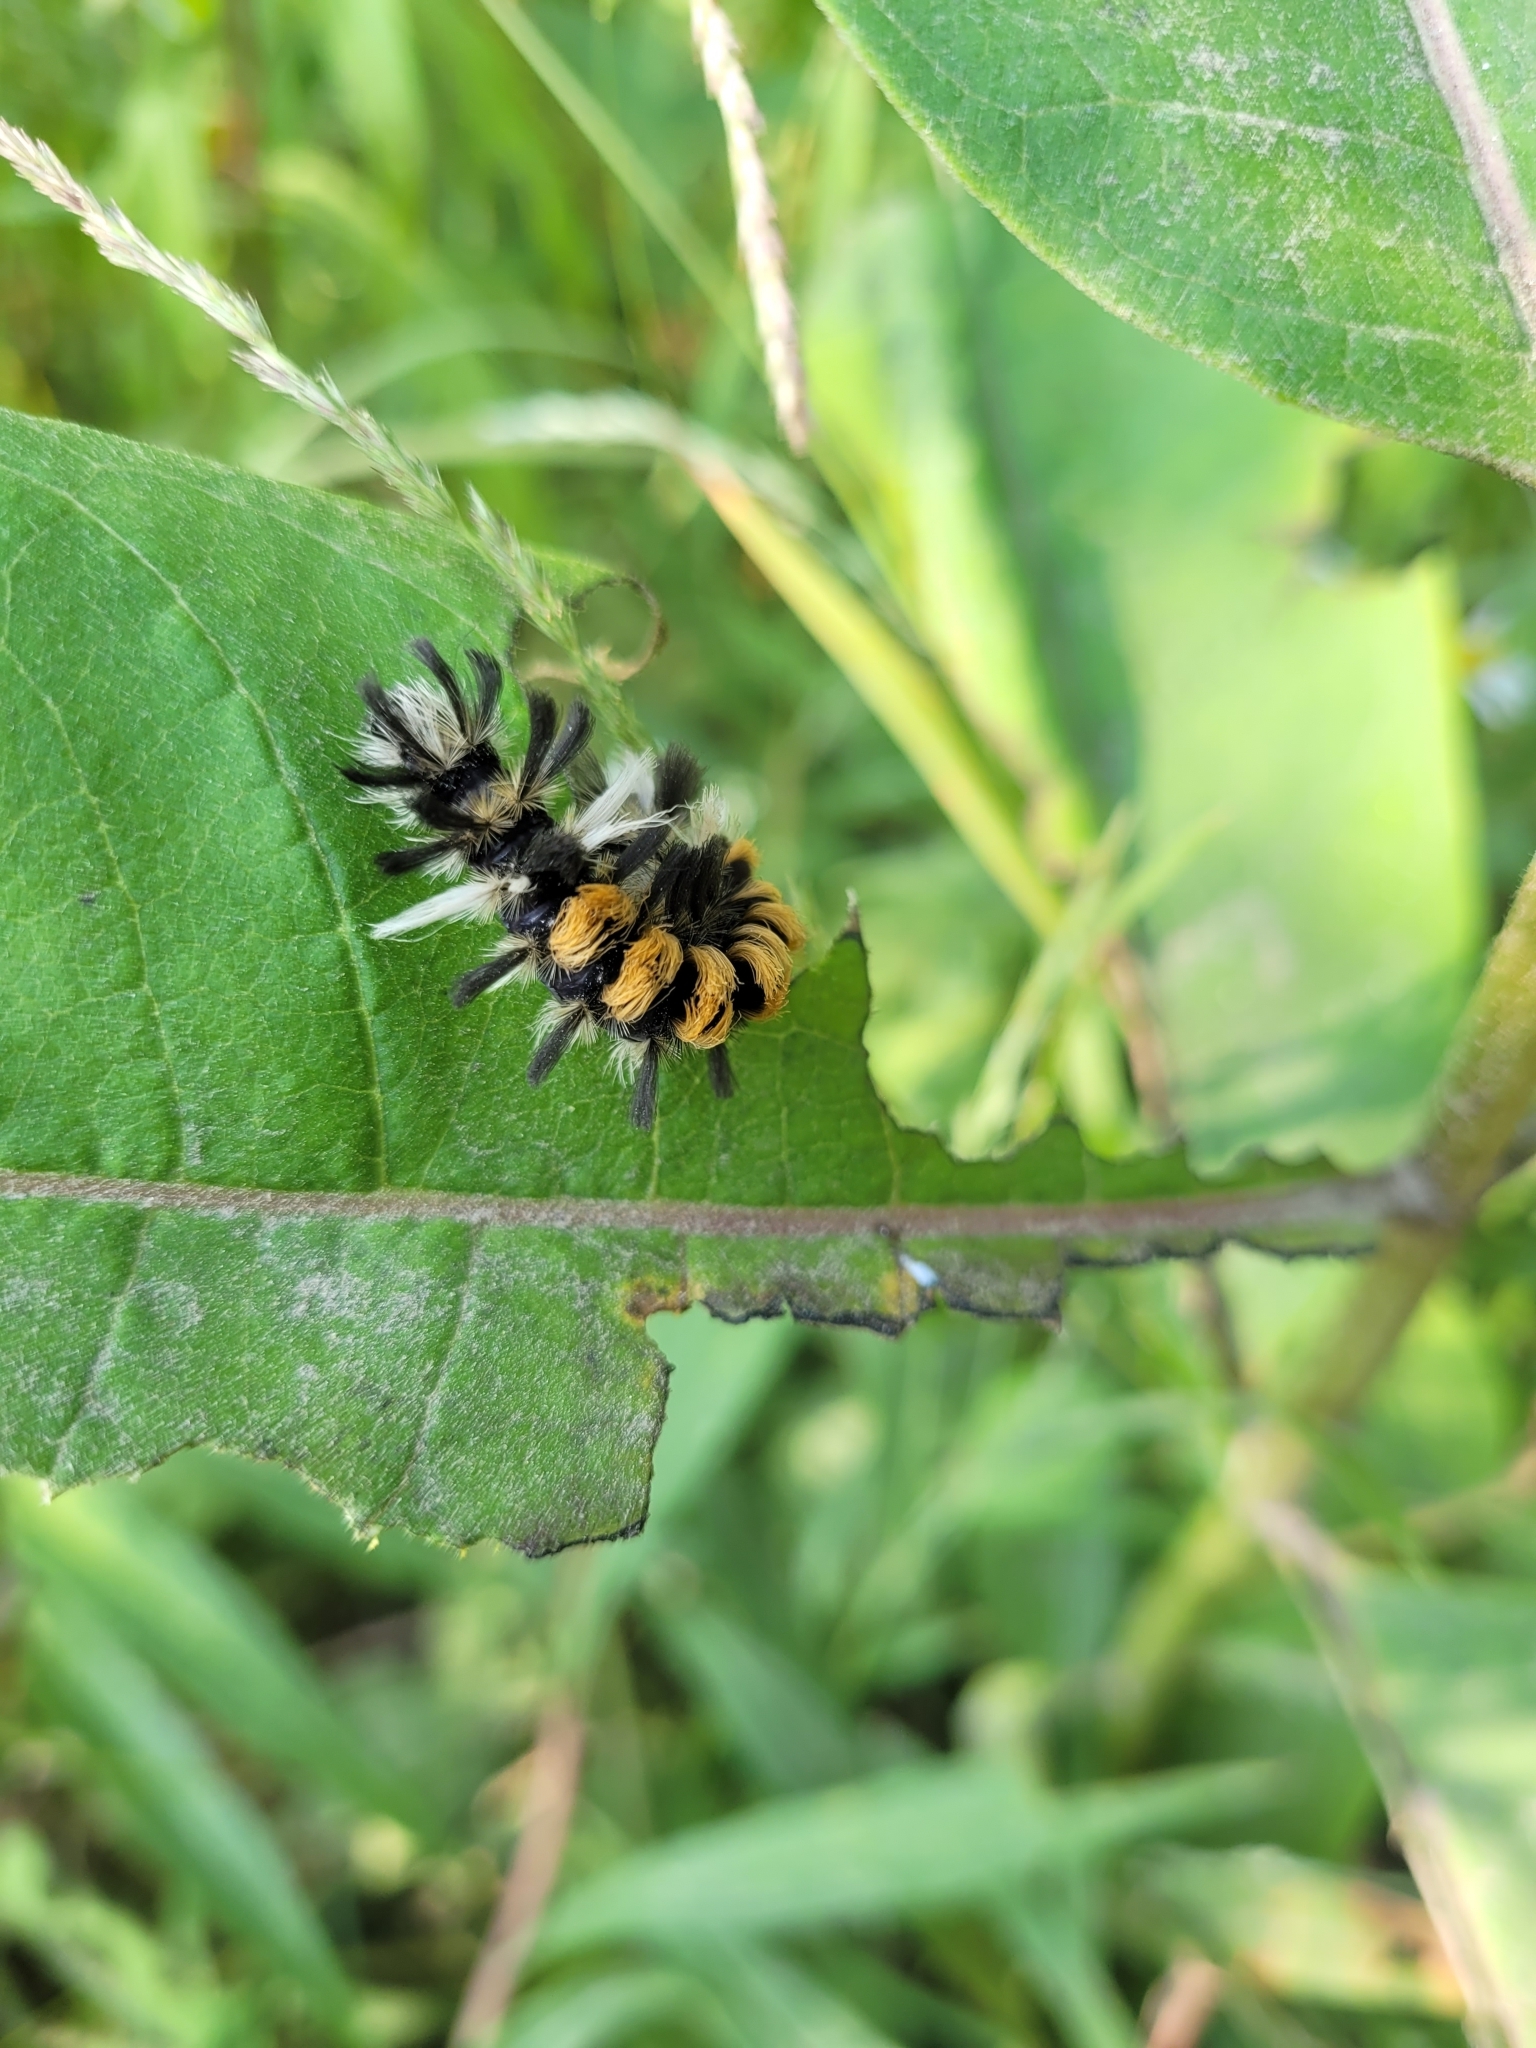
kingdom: Animalia
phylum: Arthropoda
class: Insecta
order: Lepidoptera
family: Erebidae
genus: Euchaetes
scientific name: Euchaetes egle
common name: Milkweed tussock moth
